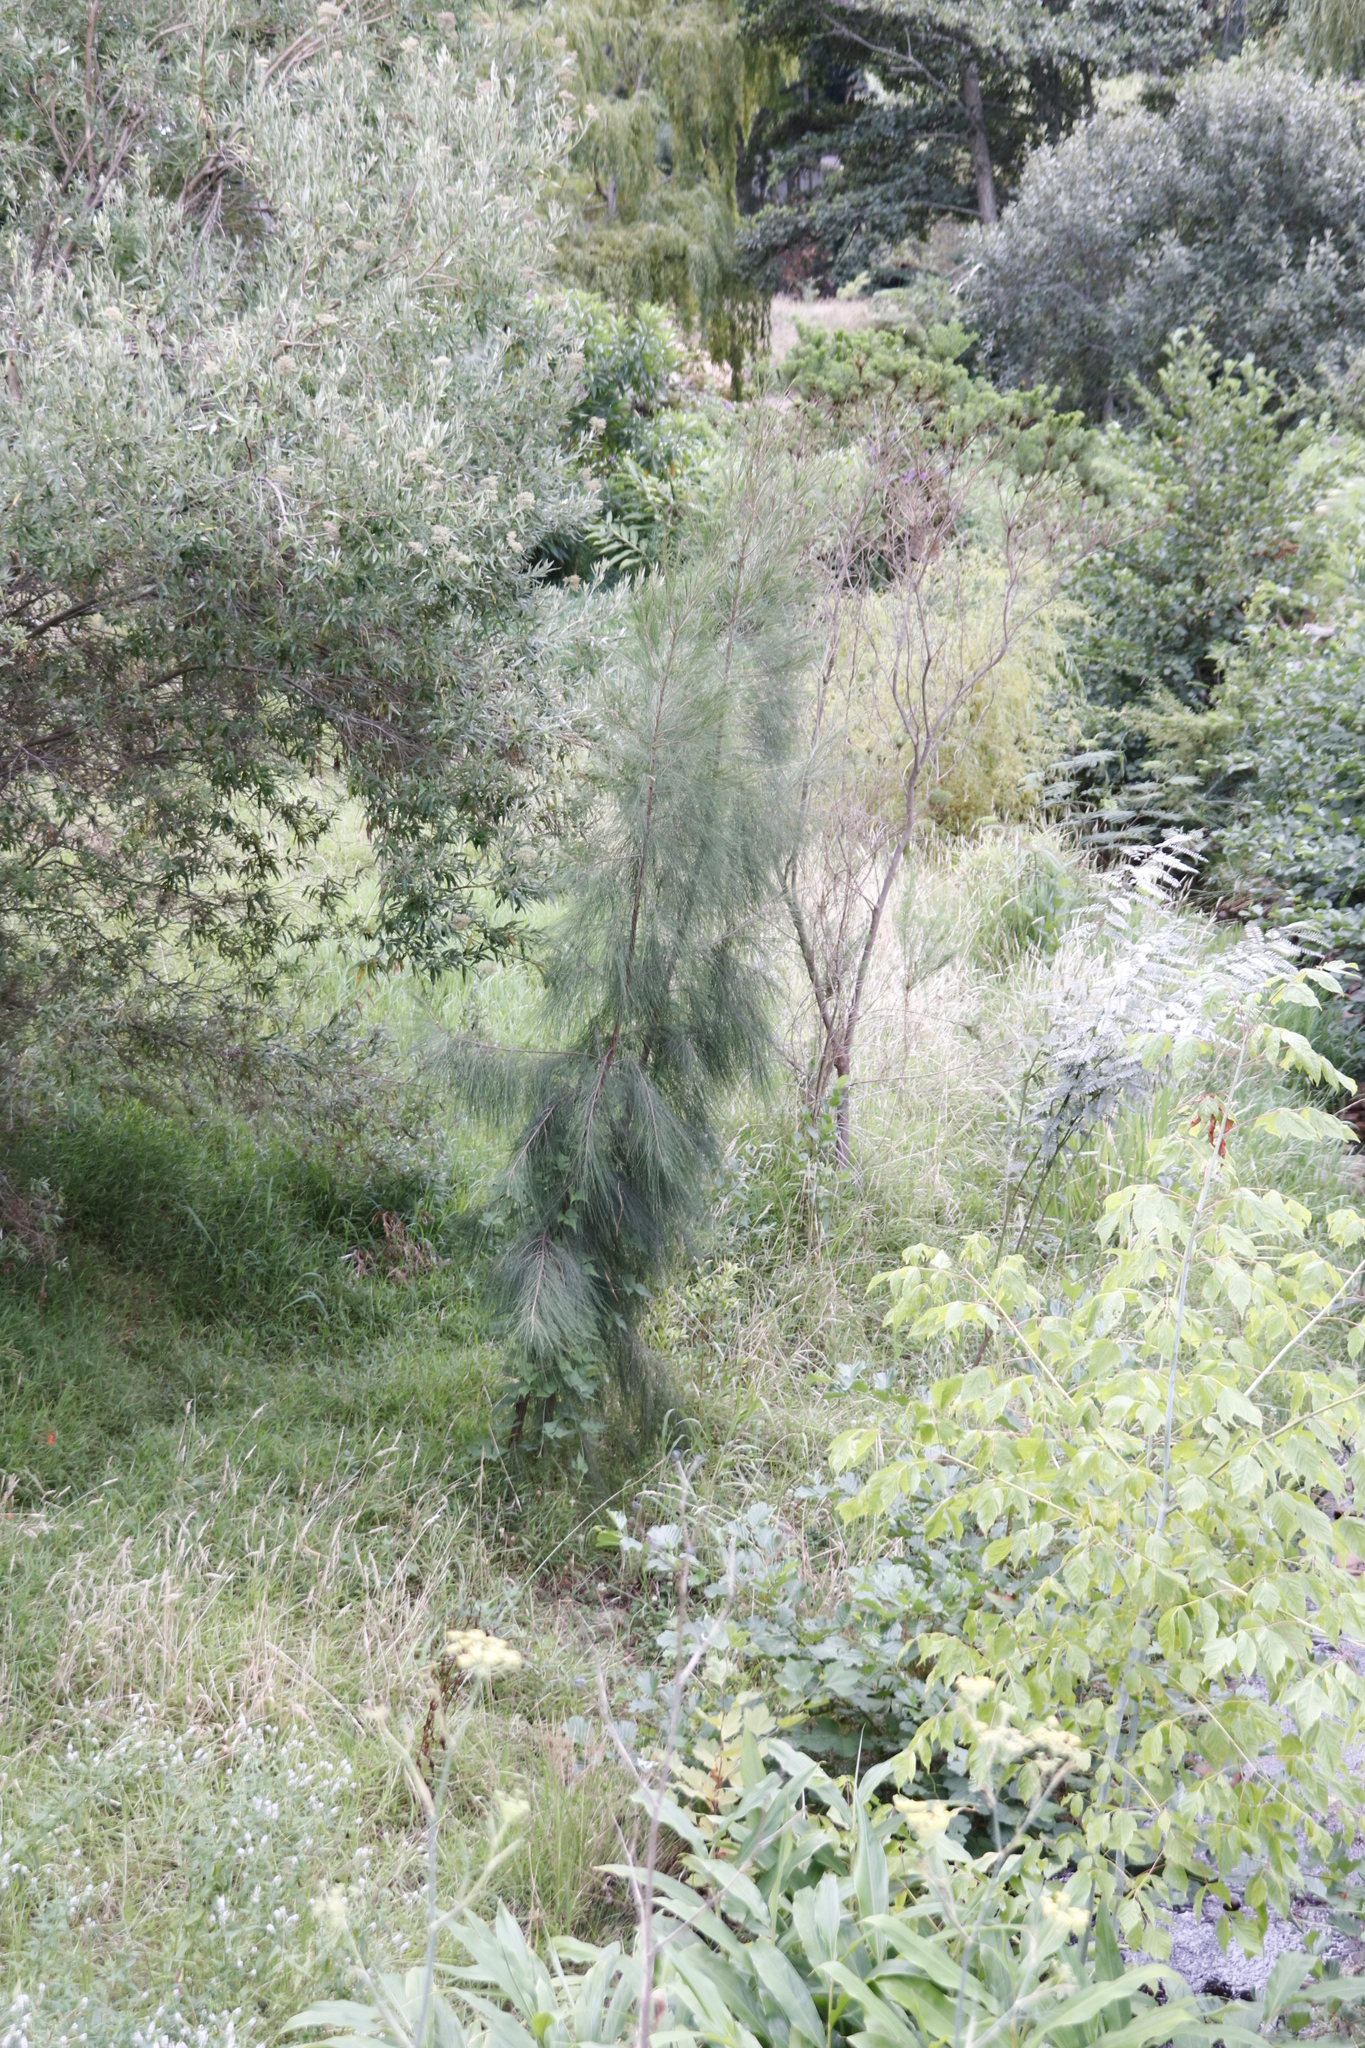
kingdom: Plantae
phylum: Tracheophyta
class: Magnoliopsida
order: Fagales
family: Casuarinaceae
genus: Casuarina
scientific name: Casuarina cunninghamiana
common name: River sheoak
